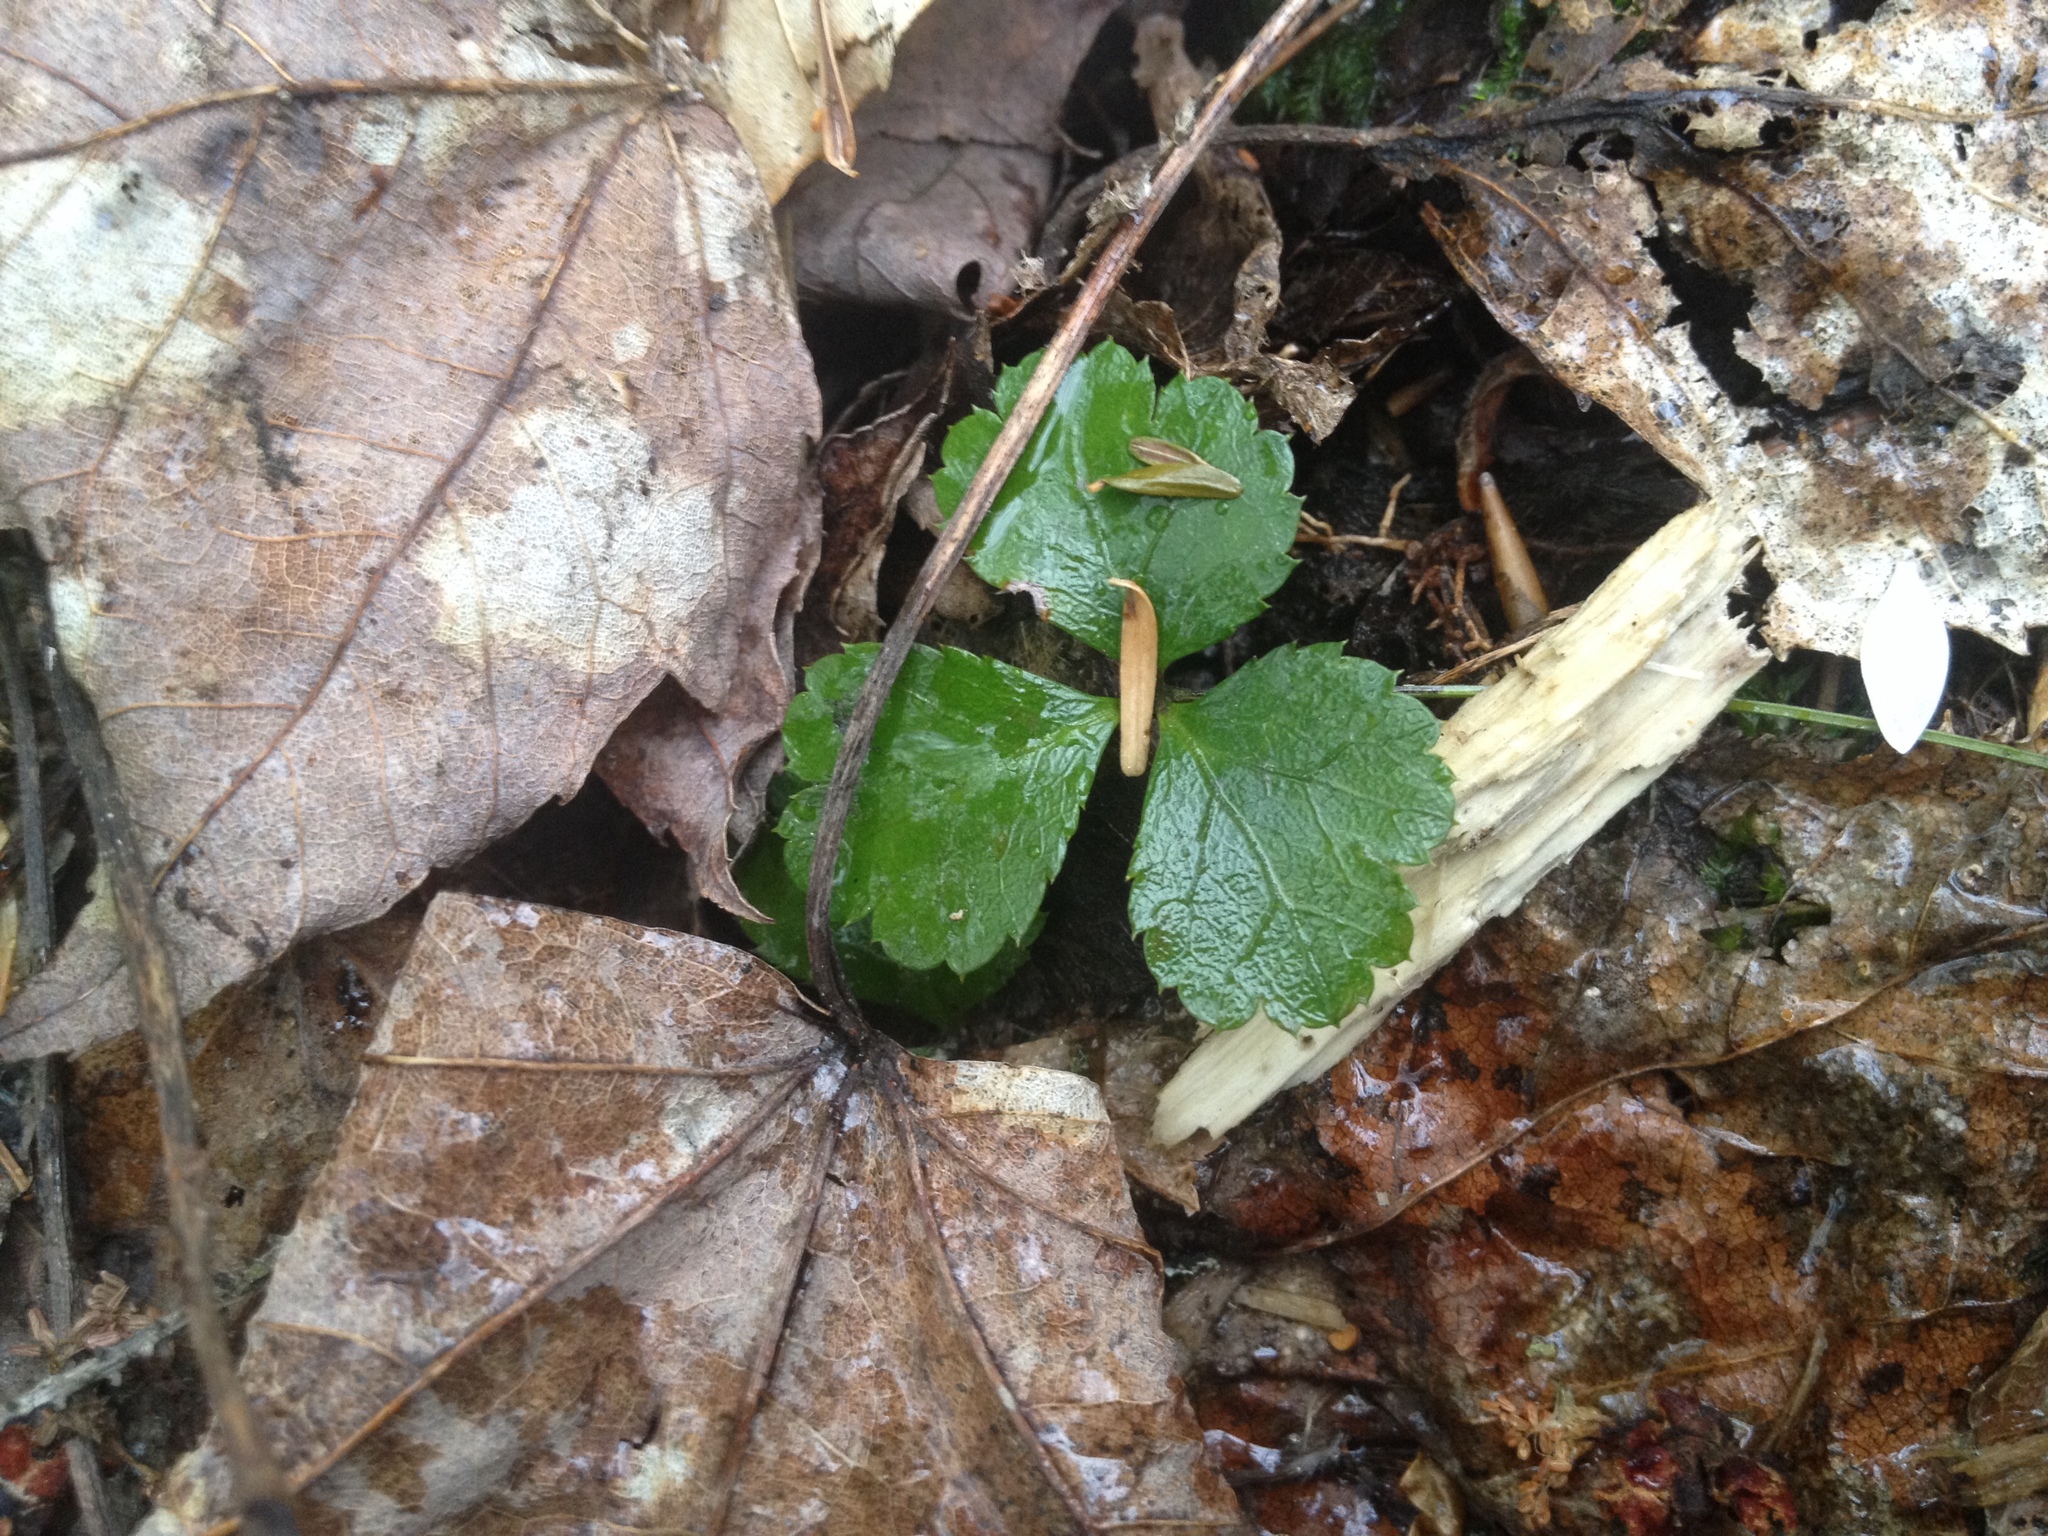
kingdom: Plantae
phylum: Tracheophyta
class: Magnoliopsida
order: Ranunculales
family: Ranunculaceae
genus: Coptis
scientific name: Coptis trifolia
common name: Canker-root
